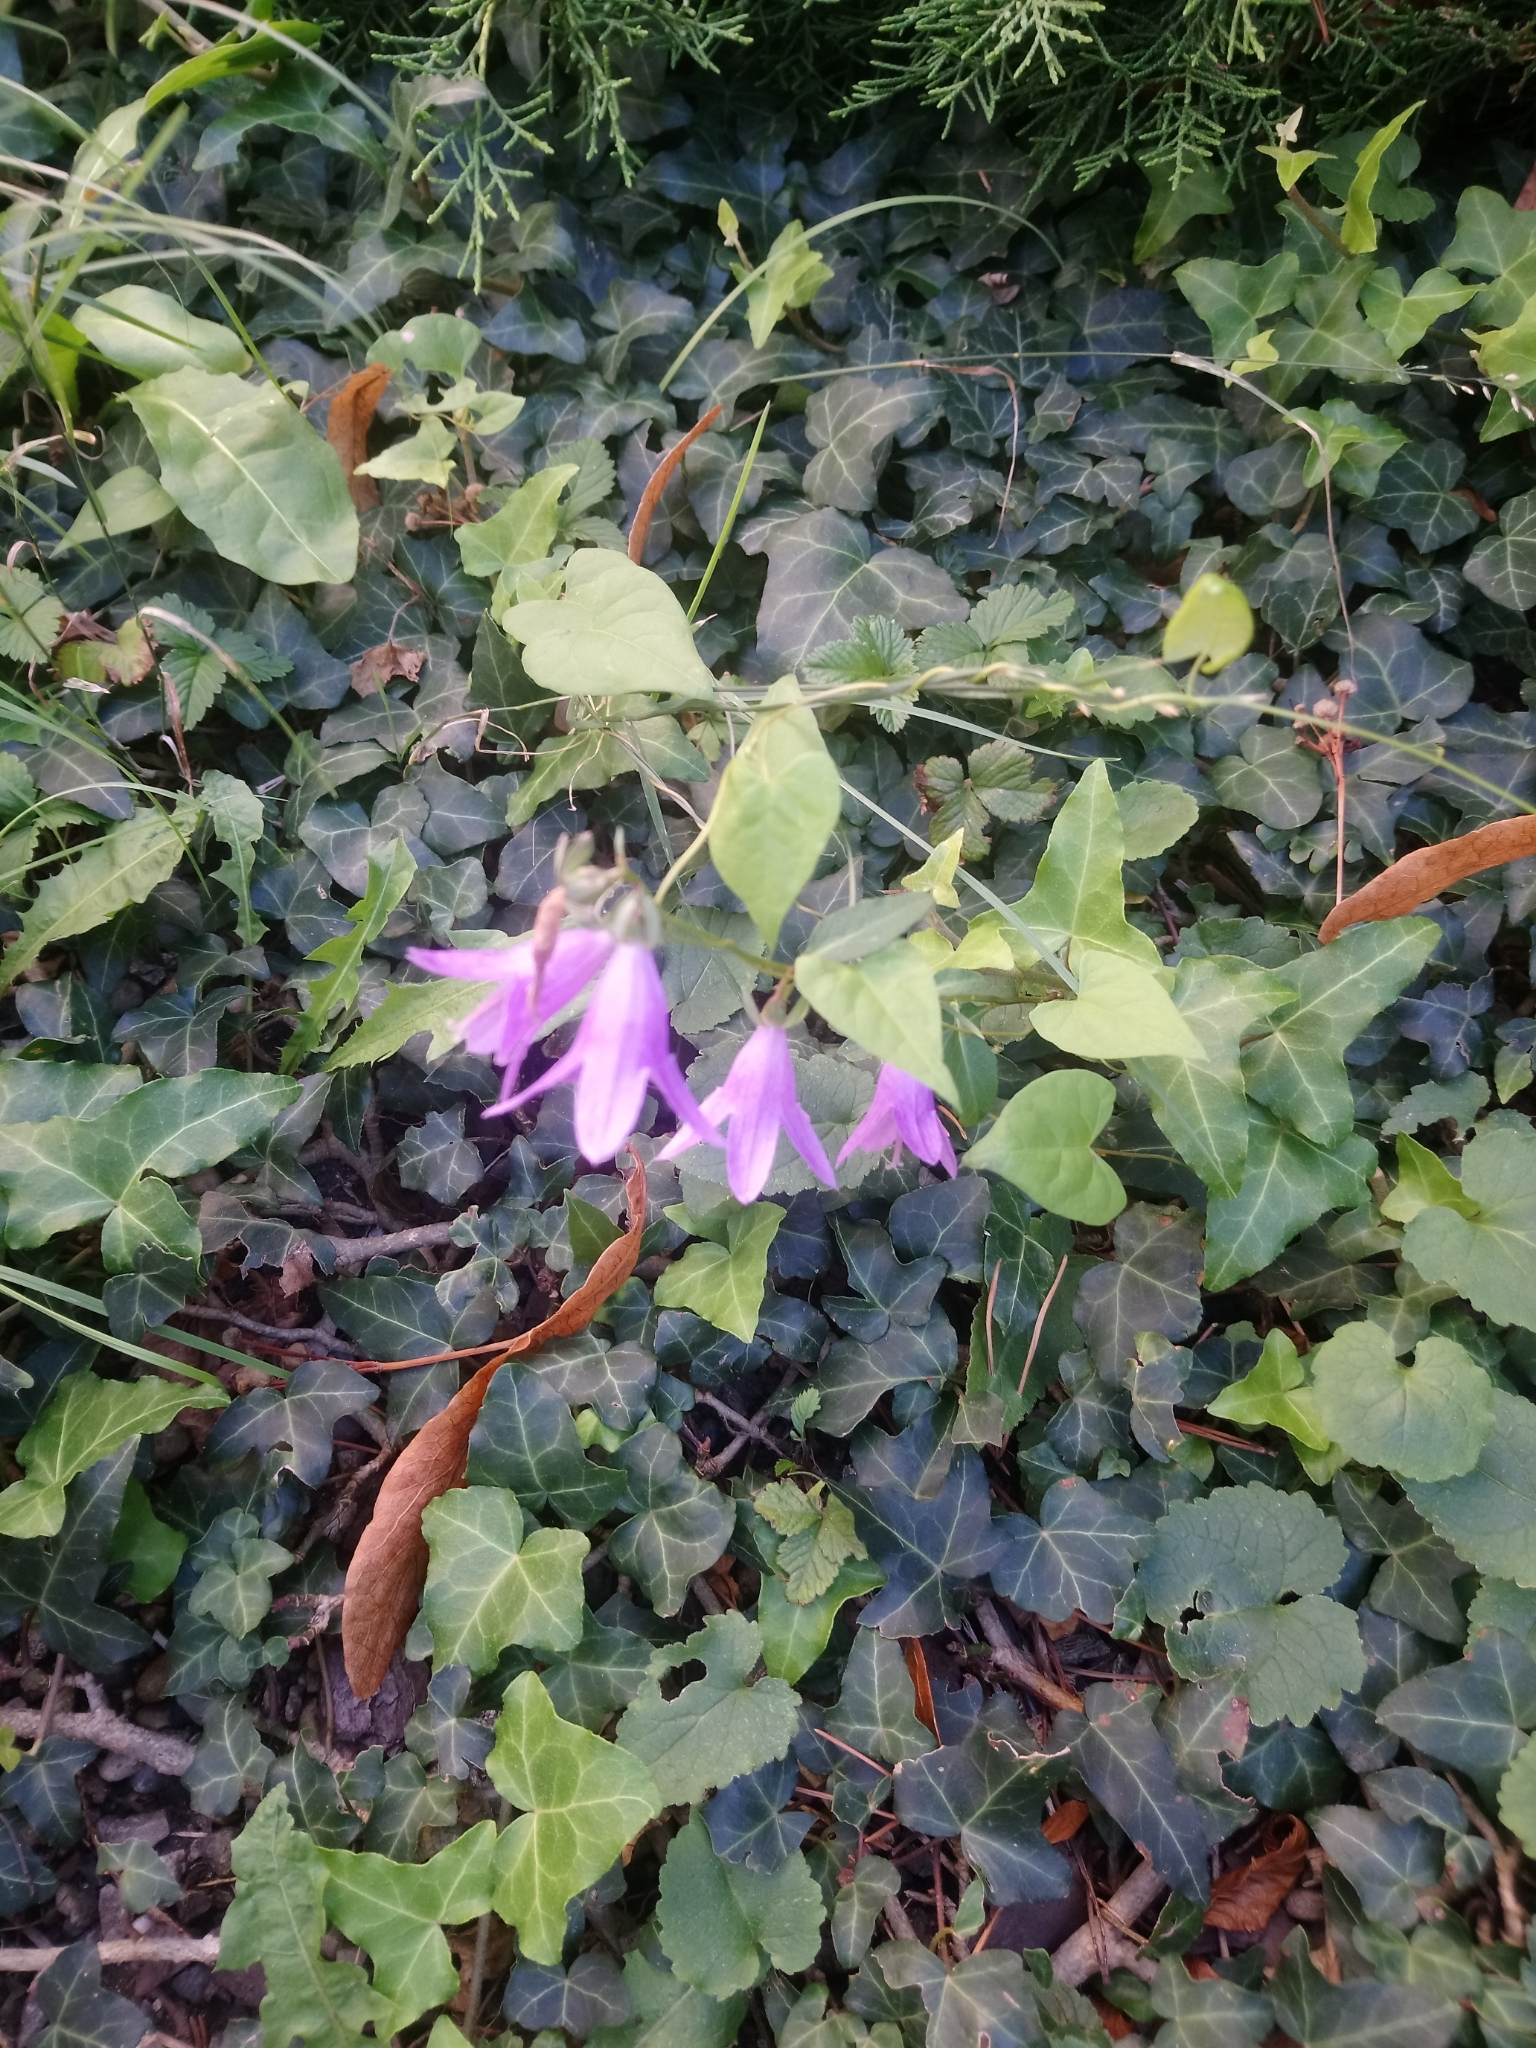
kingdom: Plantae
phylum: Tracheophyta
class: Magnoliopsida
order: Asterales
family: Campanulaceae
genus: Campanula
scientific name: Campanula rapunculoides
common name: Creeping bellflower
